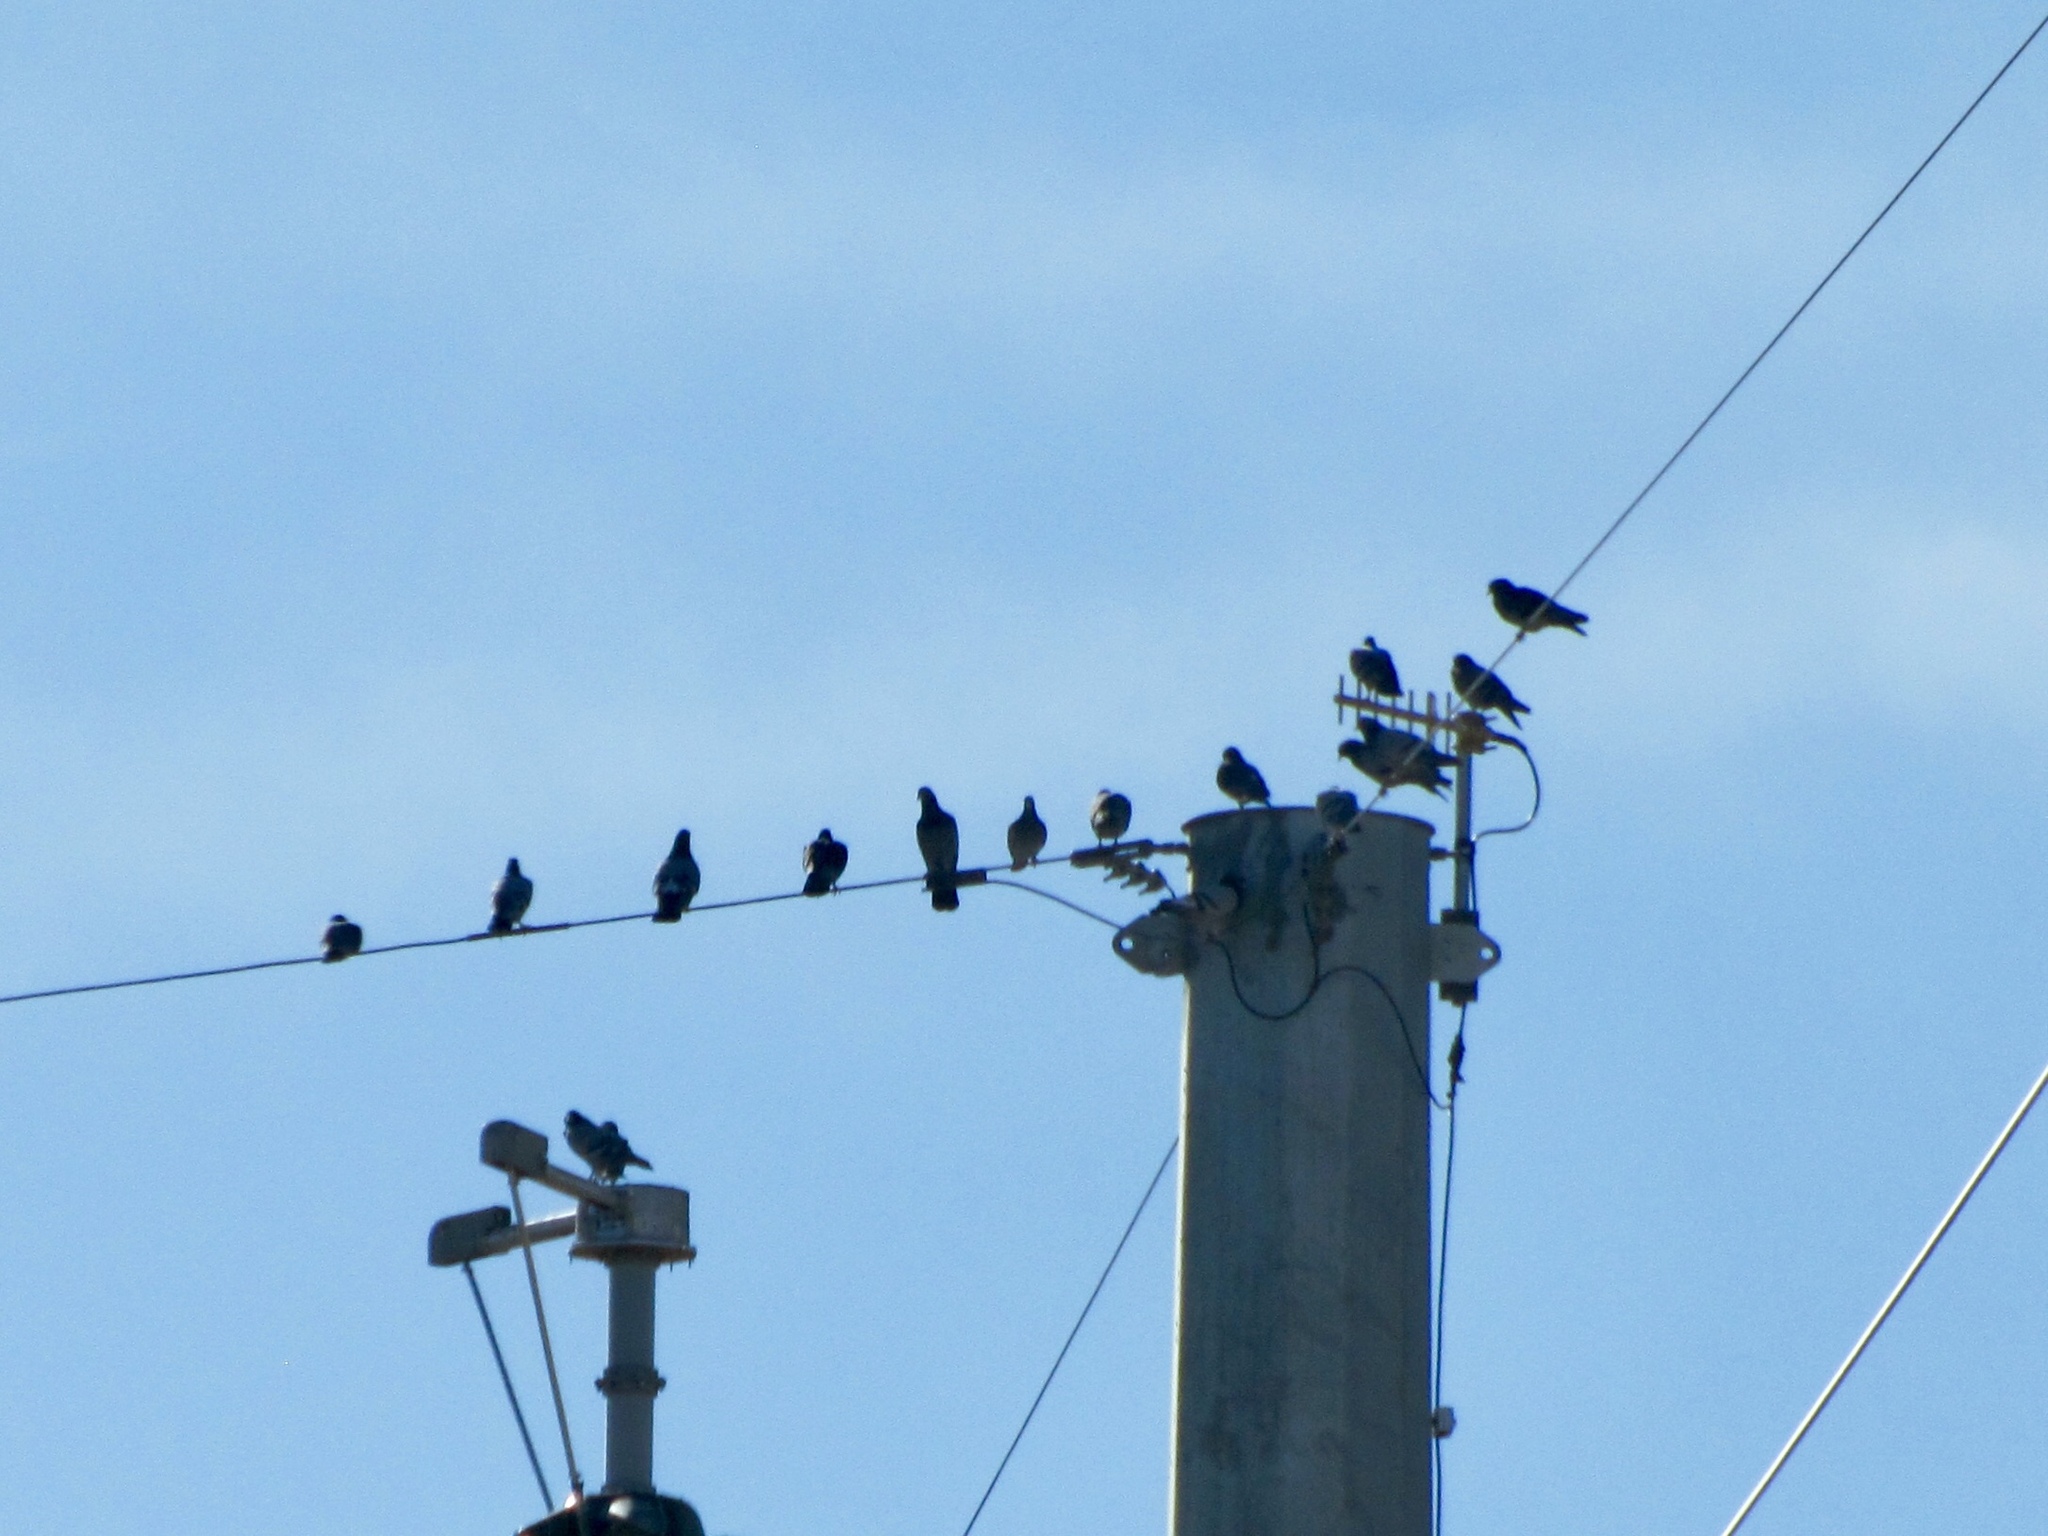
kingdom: Animalia
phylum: Chordata
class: Aves
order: Columbiformes
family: Columbidae
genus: Columba
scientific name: Columba livia
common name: Rock pigeon
